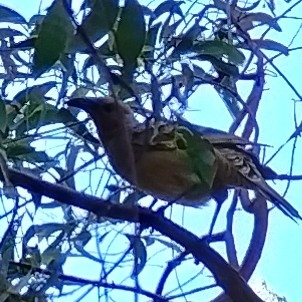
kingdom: Animalia
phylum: Chordata
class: Aves
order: Passeriformes
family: Ptilonorhynchidae
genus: Chlamydera
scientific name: Chlamydera nuchalis
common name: Great bowerbird
